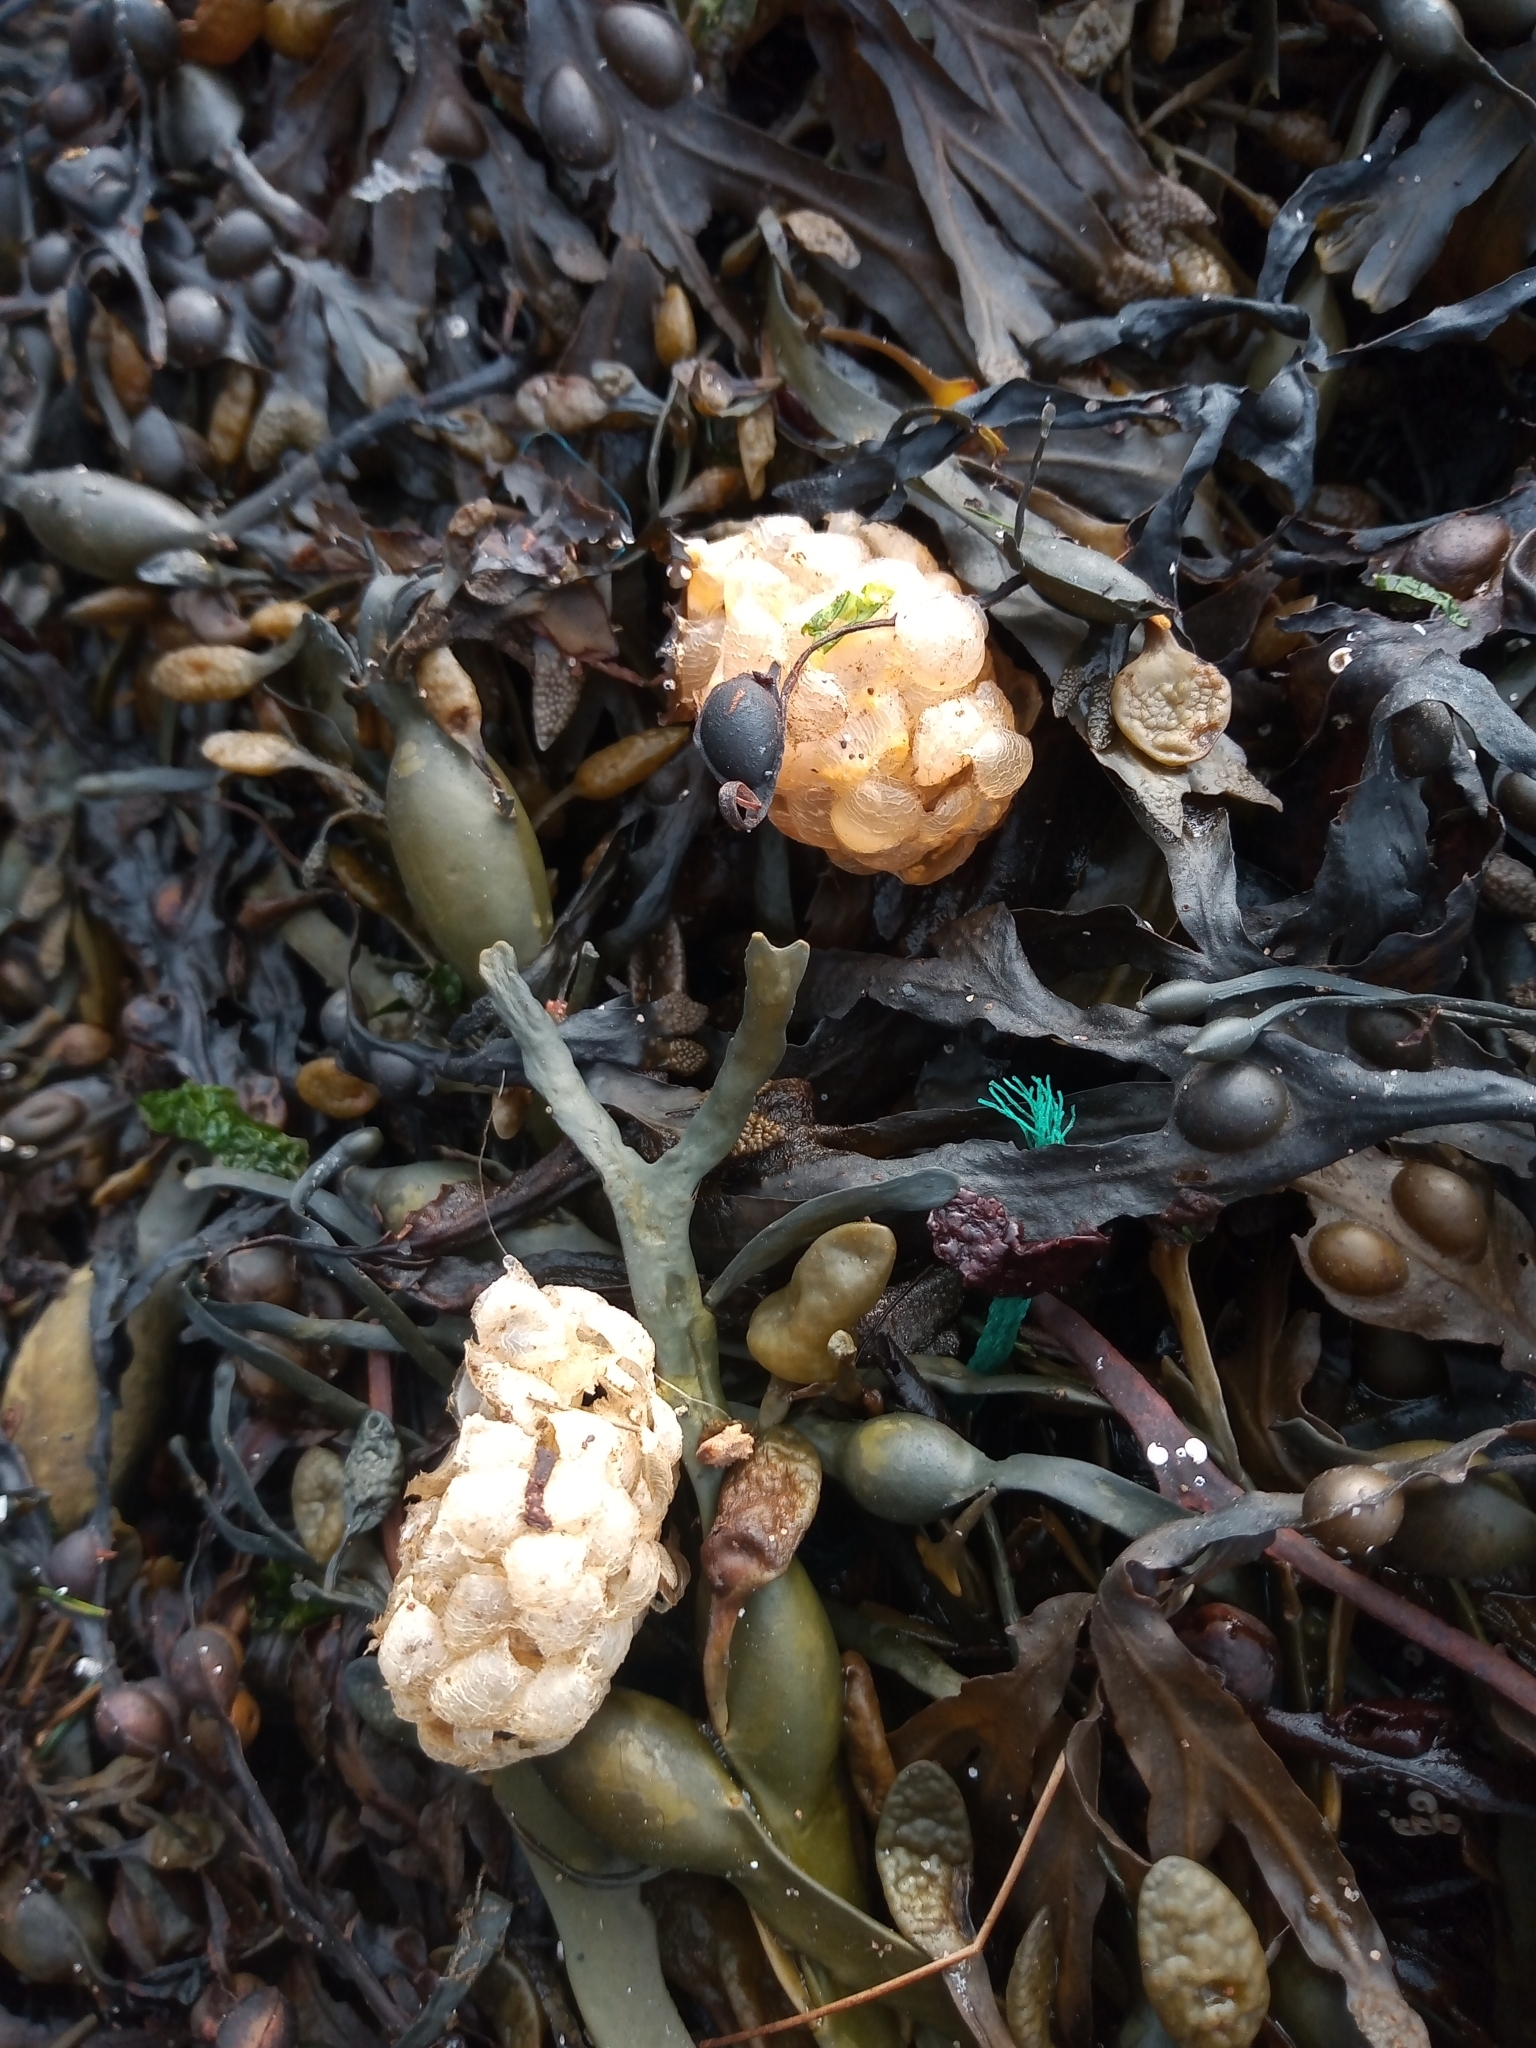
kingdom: Animalia
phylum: Mollusca
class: Gastropoda
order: Neogastropoda
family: Buccinidae
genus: Buccinum
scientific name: Buccinum undatum
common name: Common whelk
